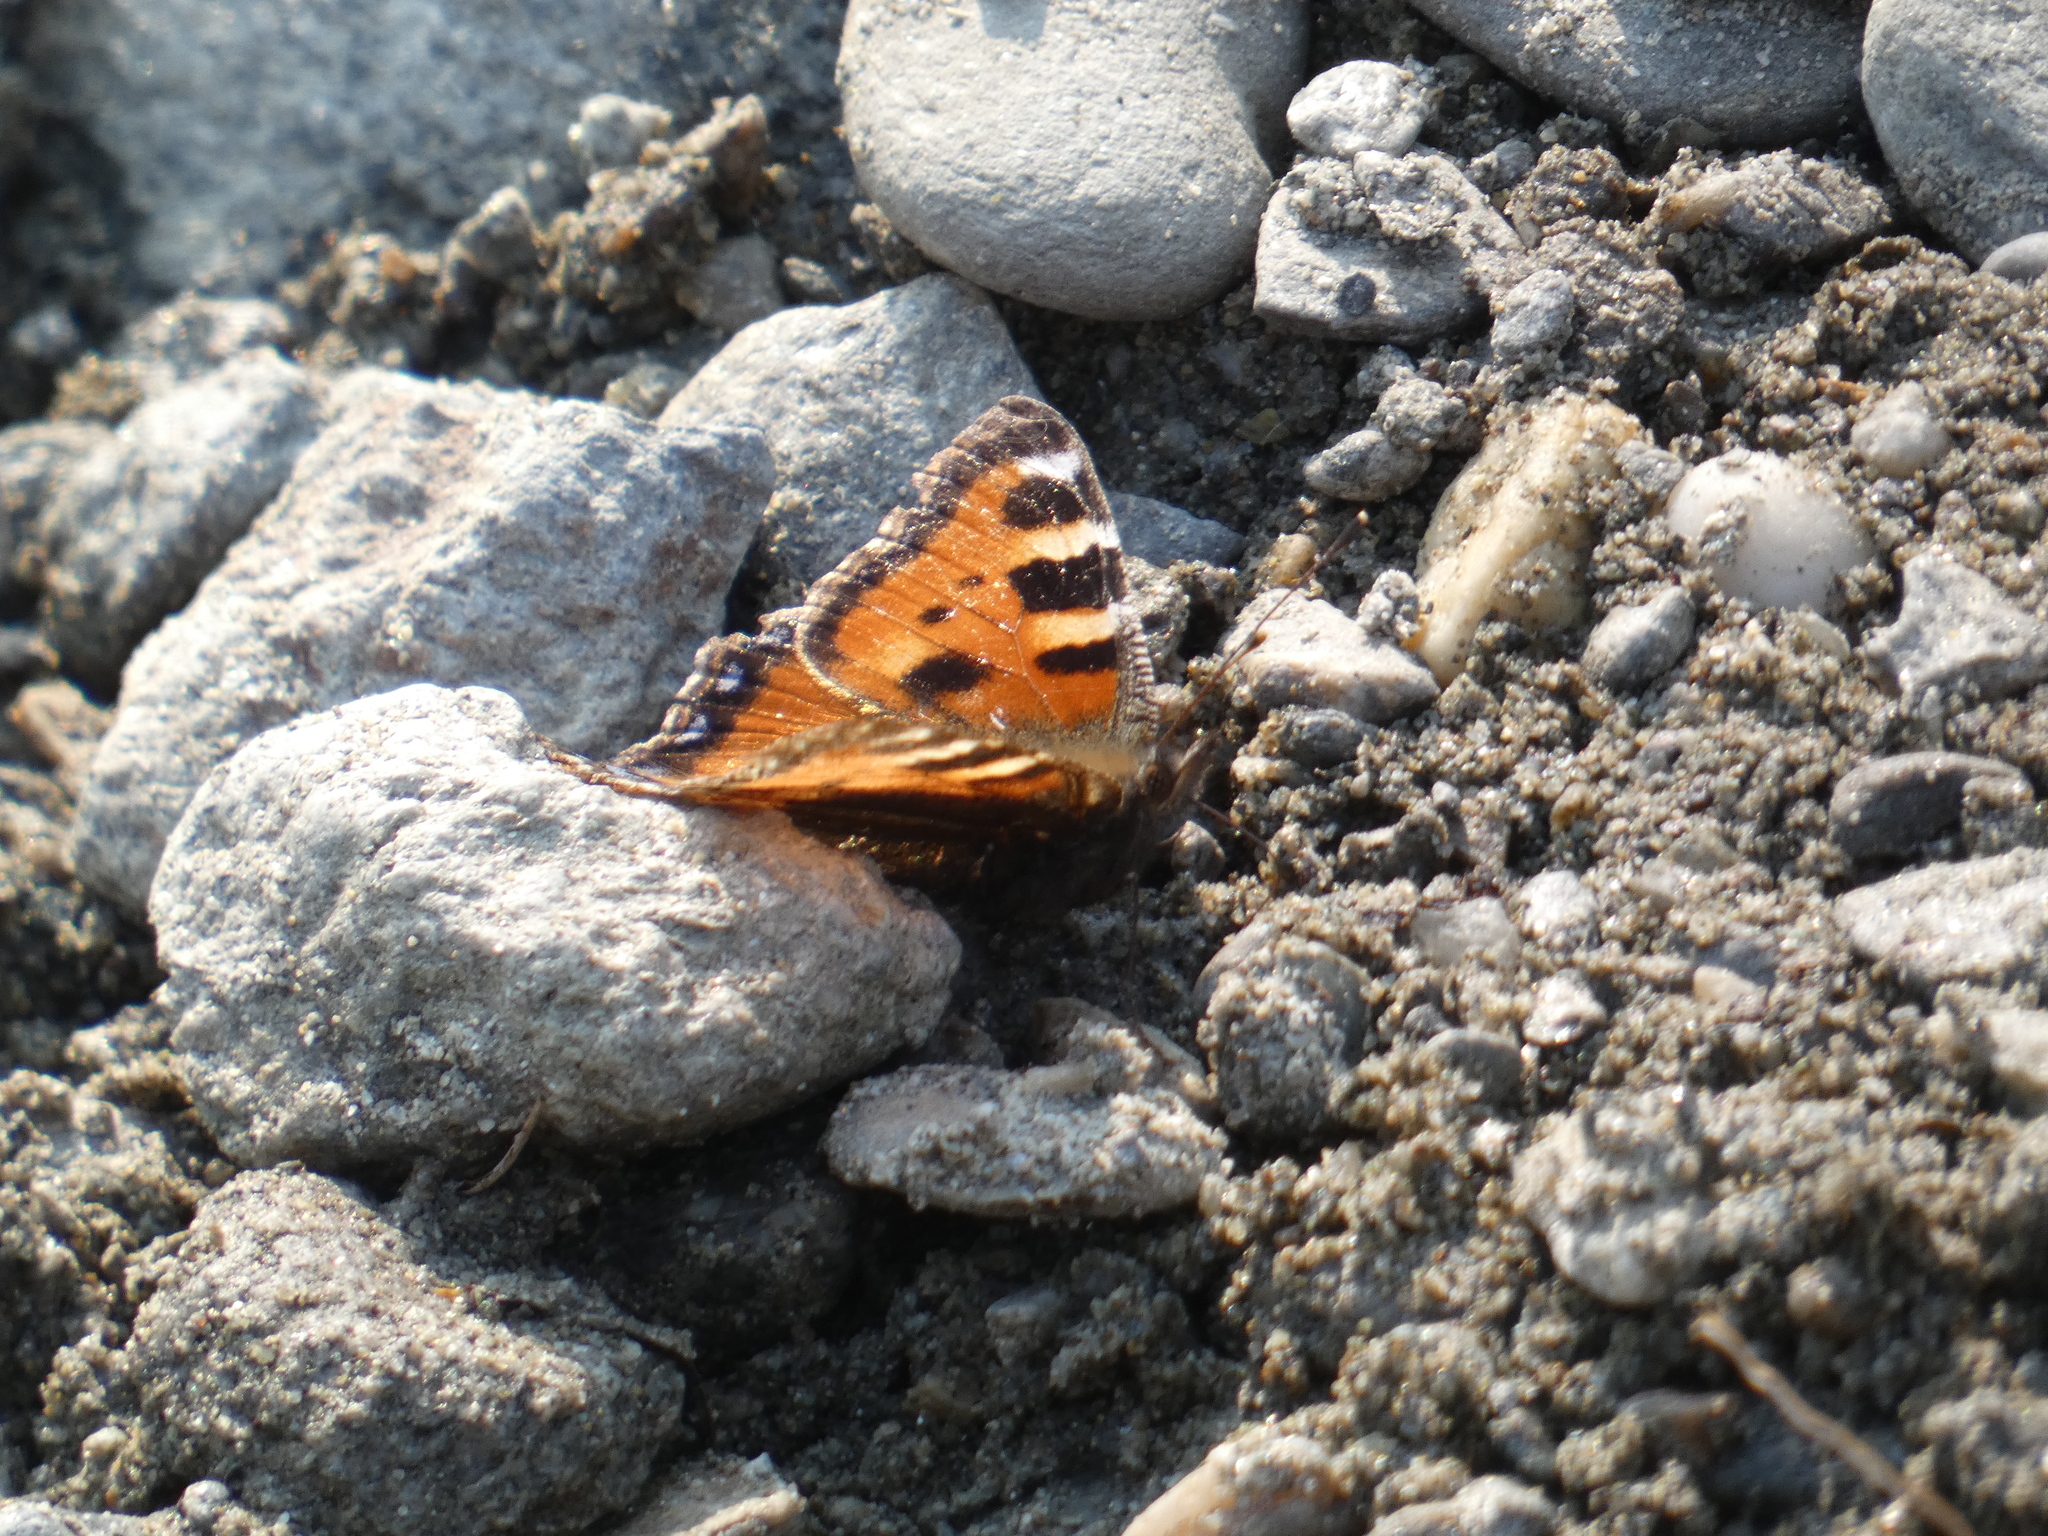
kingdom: Animalia
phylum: Arthropoda
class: Insecta
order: Lepidoptera
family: Nymphalidae
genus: Aglais
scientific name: Aglais urticae
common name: Small tortoiseshell
